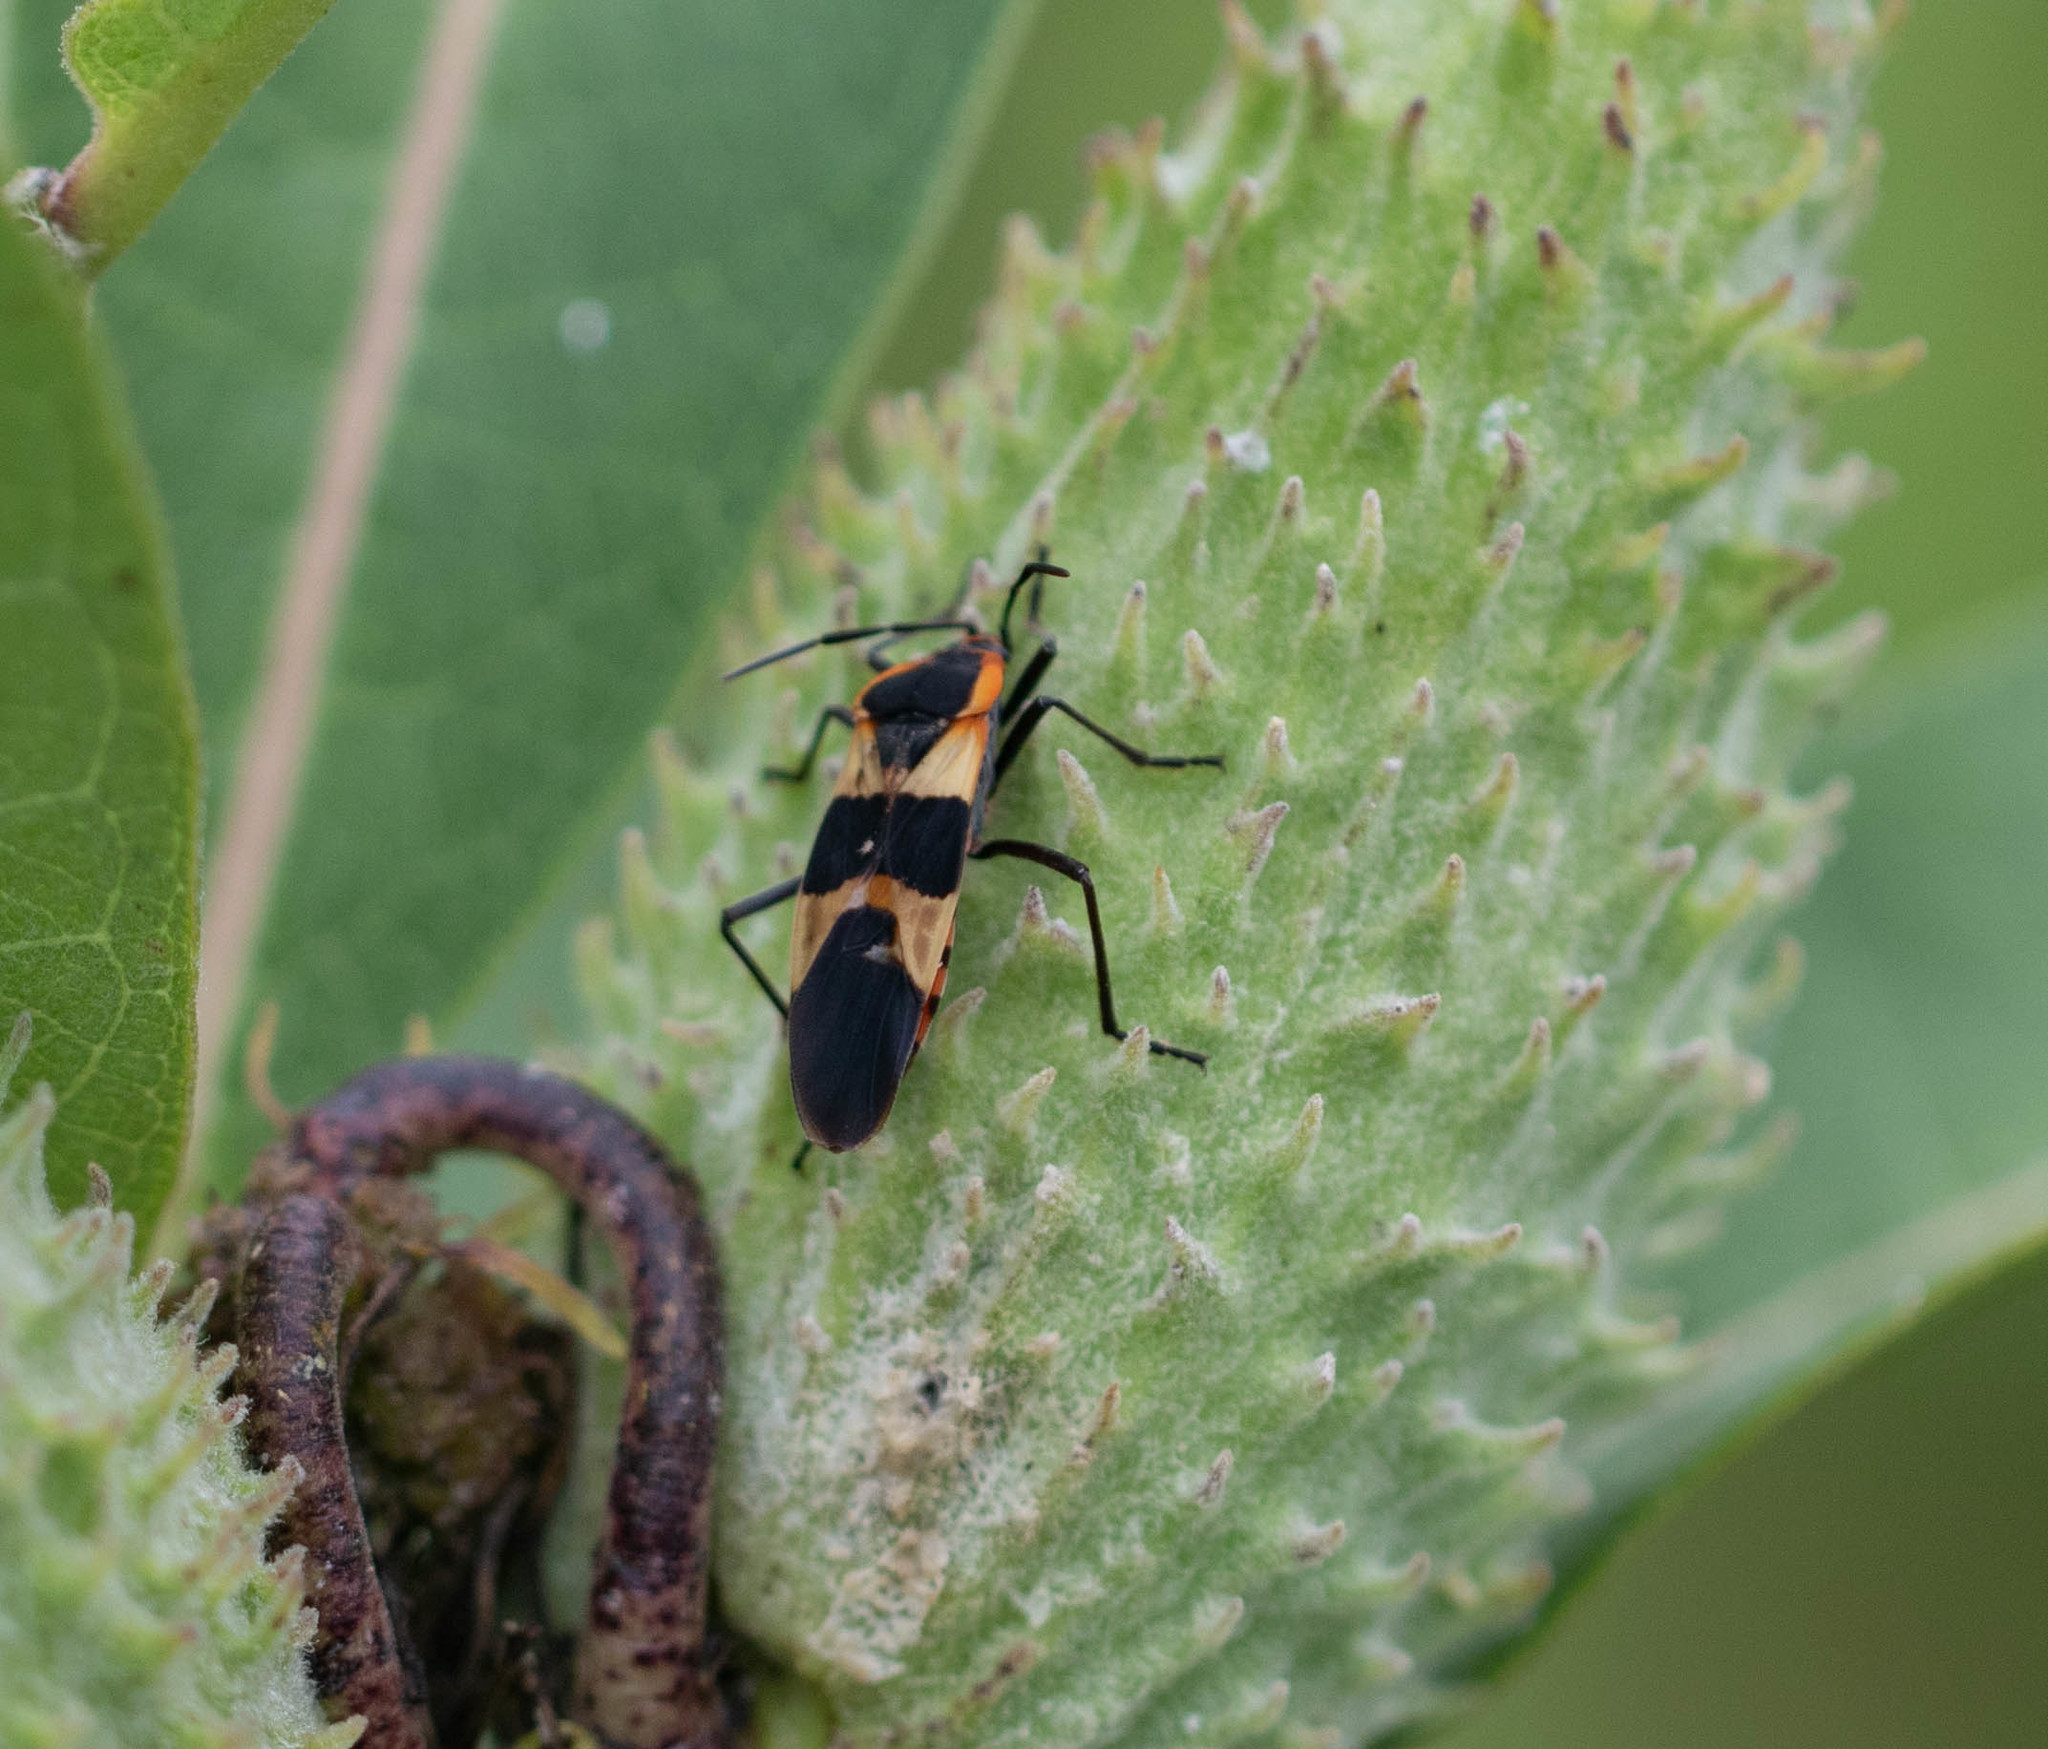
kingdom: Animalia
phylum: Arthropoda
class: Insecta
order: Hemiptera
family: Lygaeidae
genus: Oncopeltus
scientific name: Oncopeltus fasciatus
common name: Large milkweed bug
